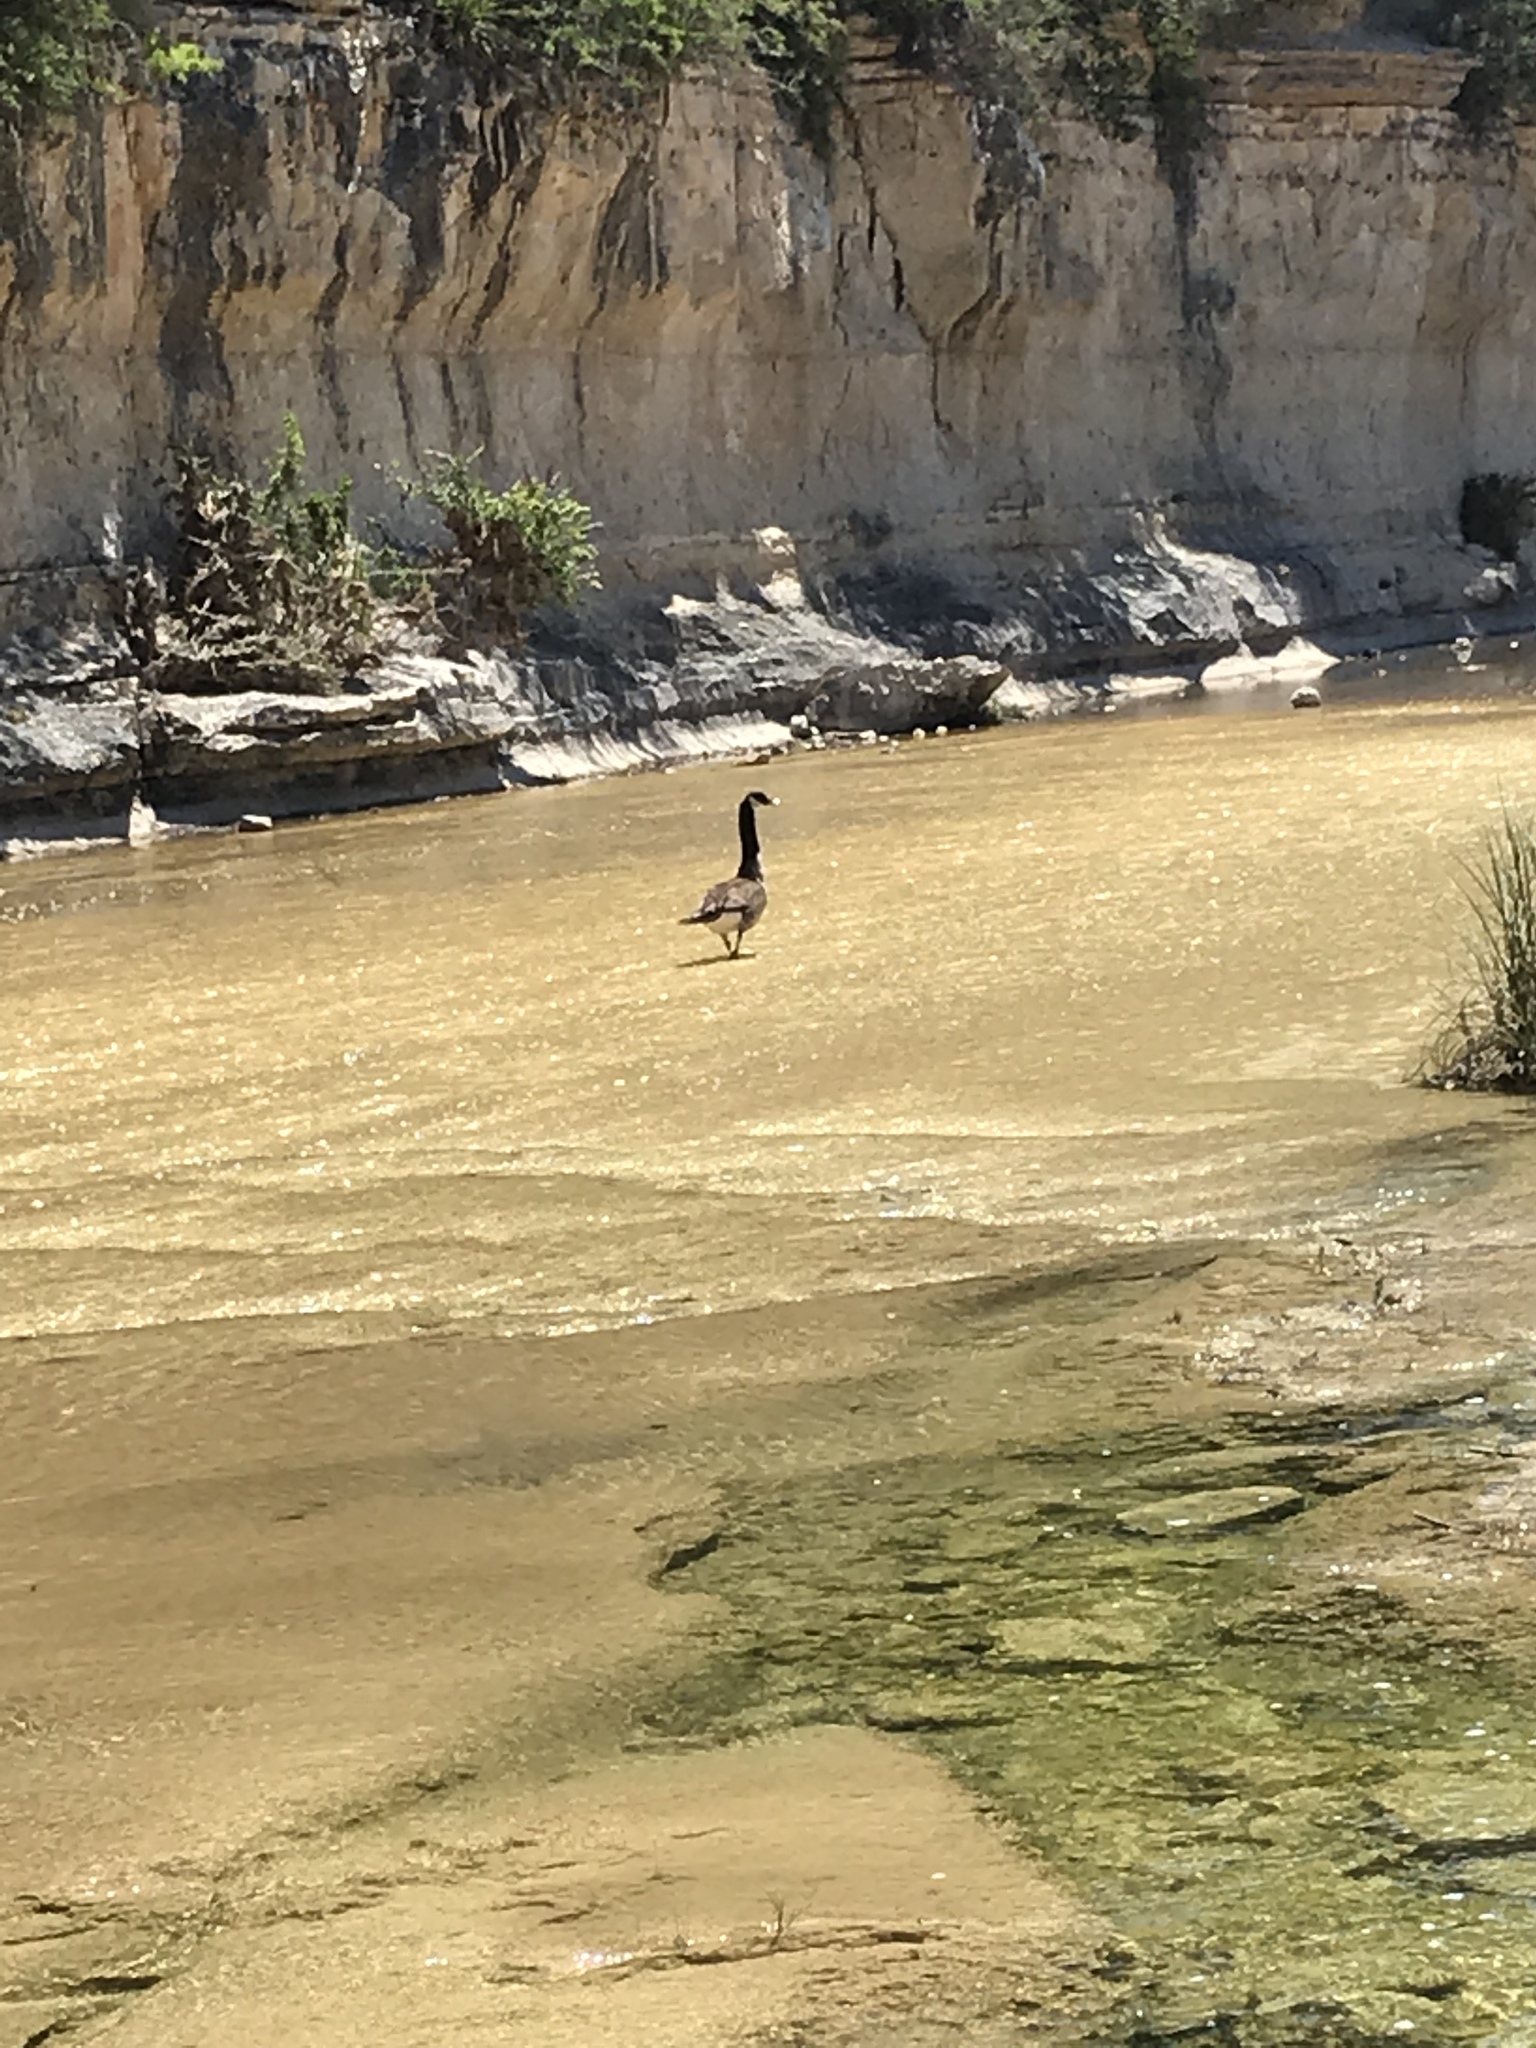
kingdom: Animalia
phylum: Chordata
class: Aves
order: Anseriformes
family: Anatidae
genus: Branta
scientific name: Branta canadensis
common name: Canada goose
